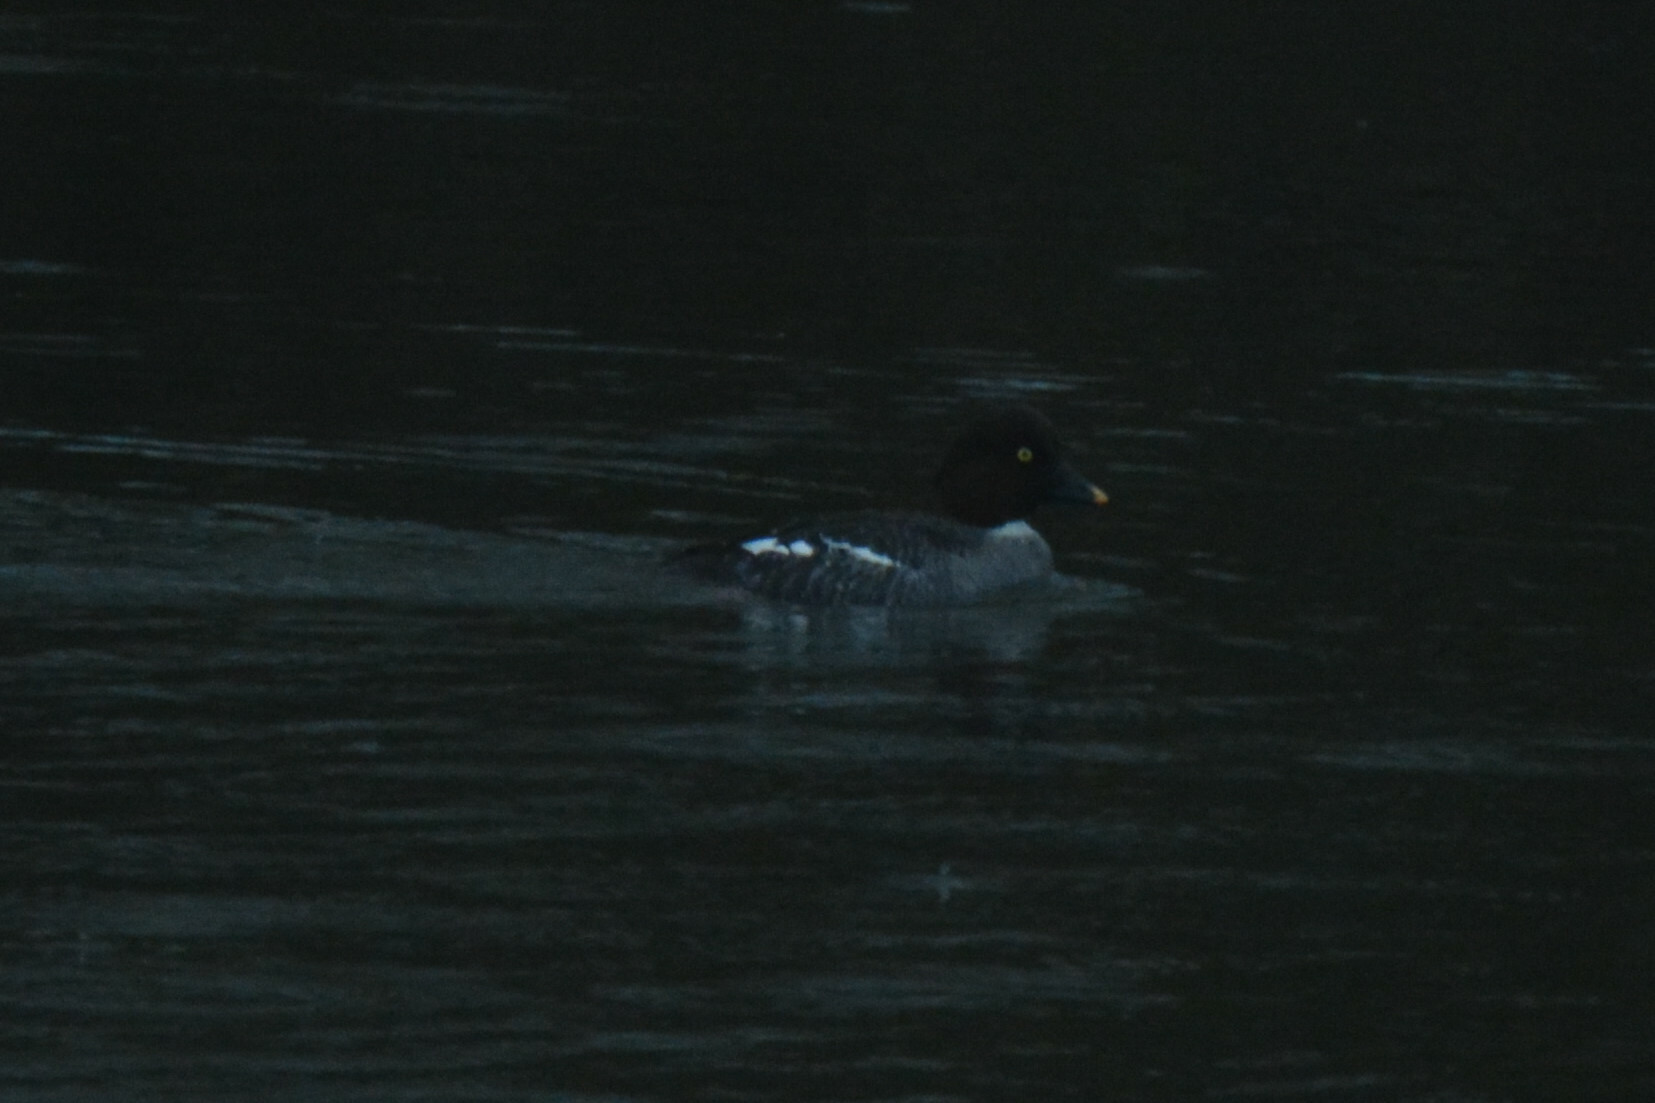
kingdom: Animalia
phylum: Chordata
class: Aves
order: Anseriformes
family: Anatidae
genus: Bucephala
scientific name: Bucephala clangula
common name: Common goldeneye
